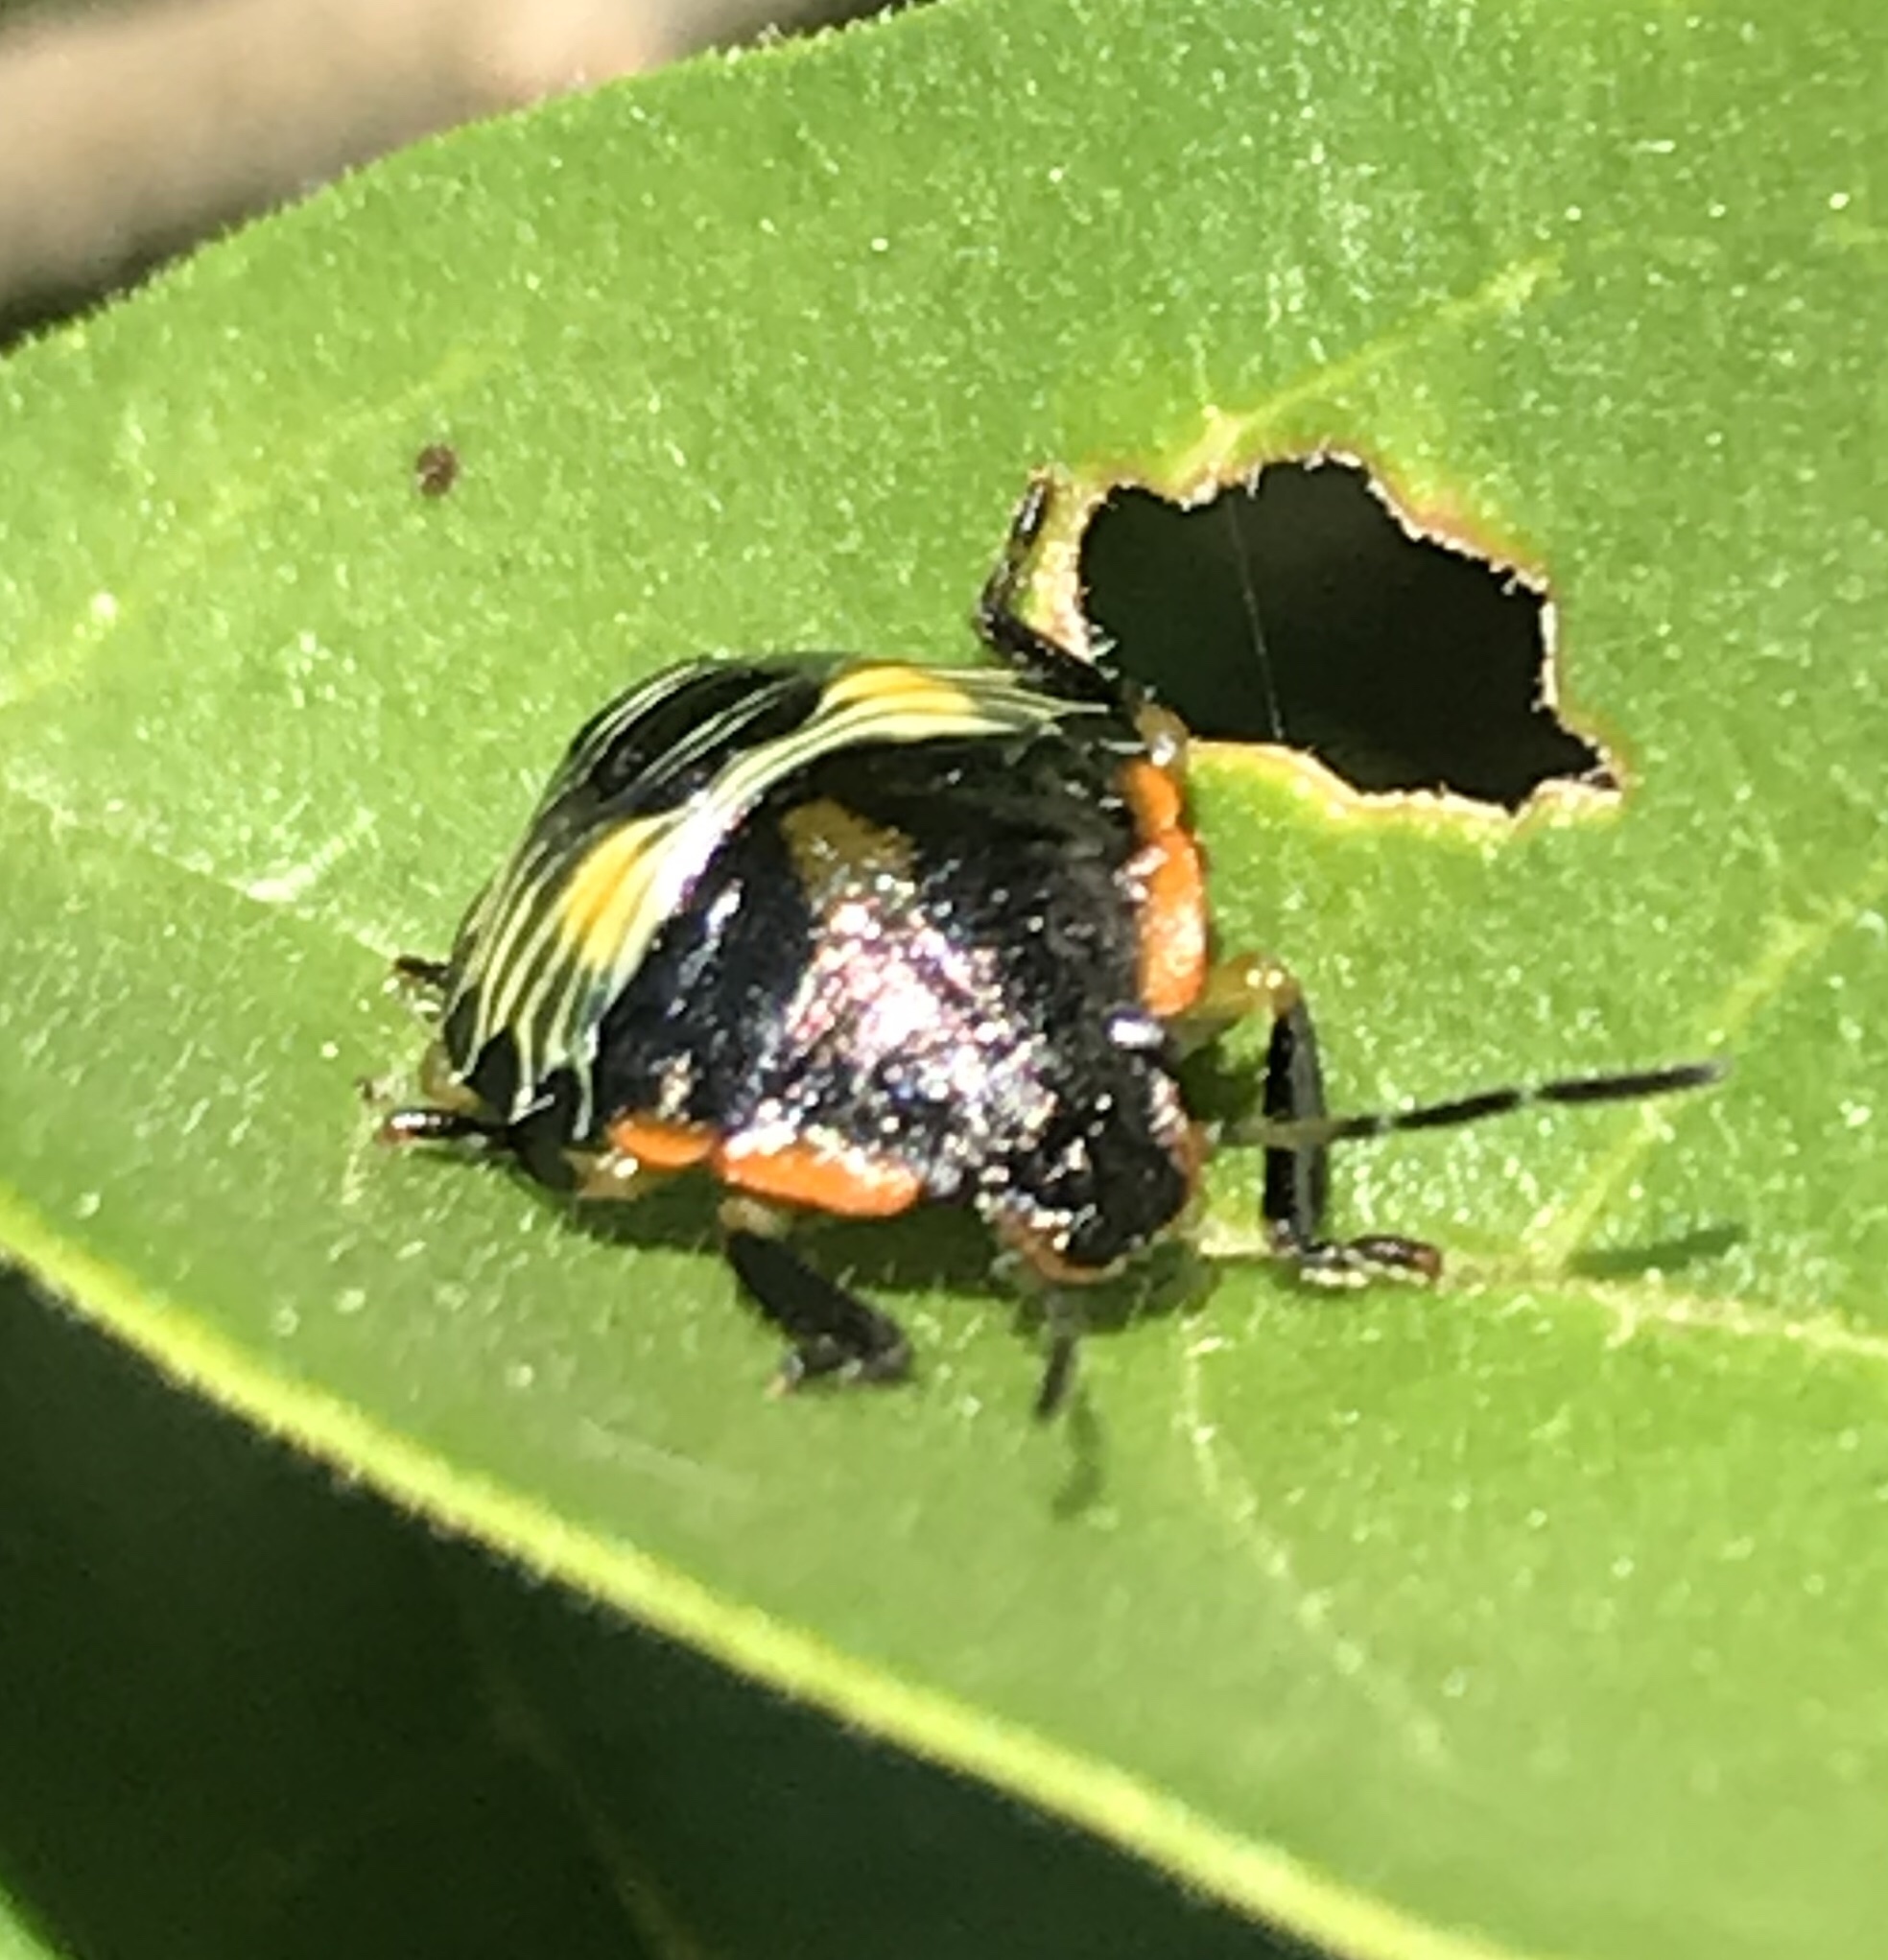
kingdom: Animalia
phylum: Arthropoda
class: Insecta
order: Hemiptera
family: Pentatomidae
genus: Chinavia
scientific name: Chinavia hilaris
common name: Green stink bug
